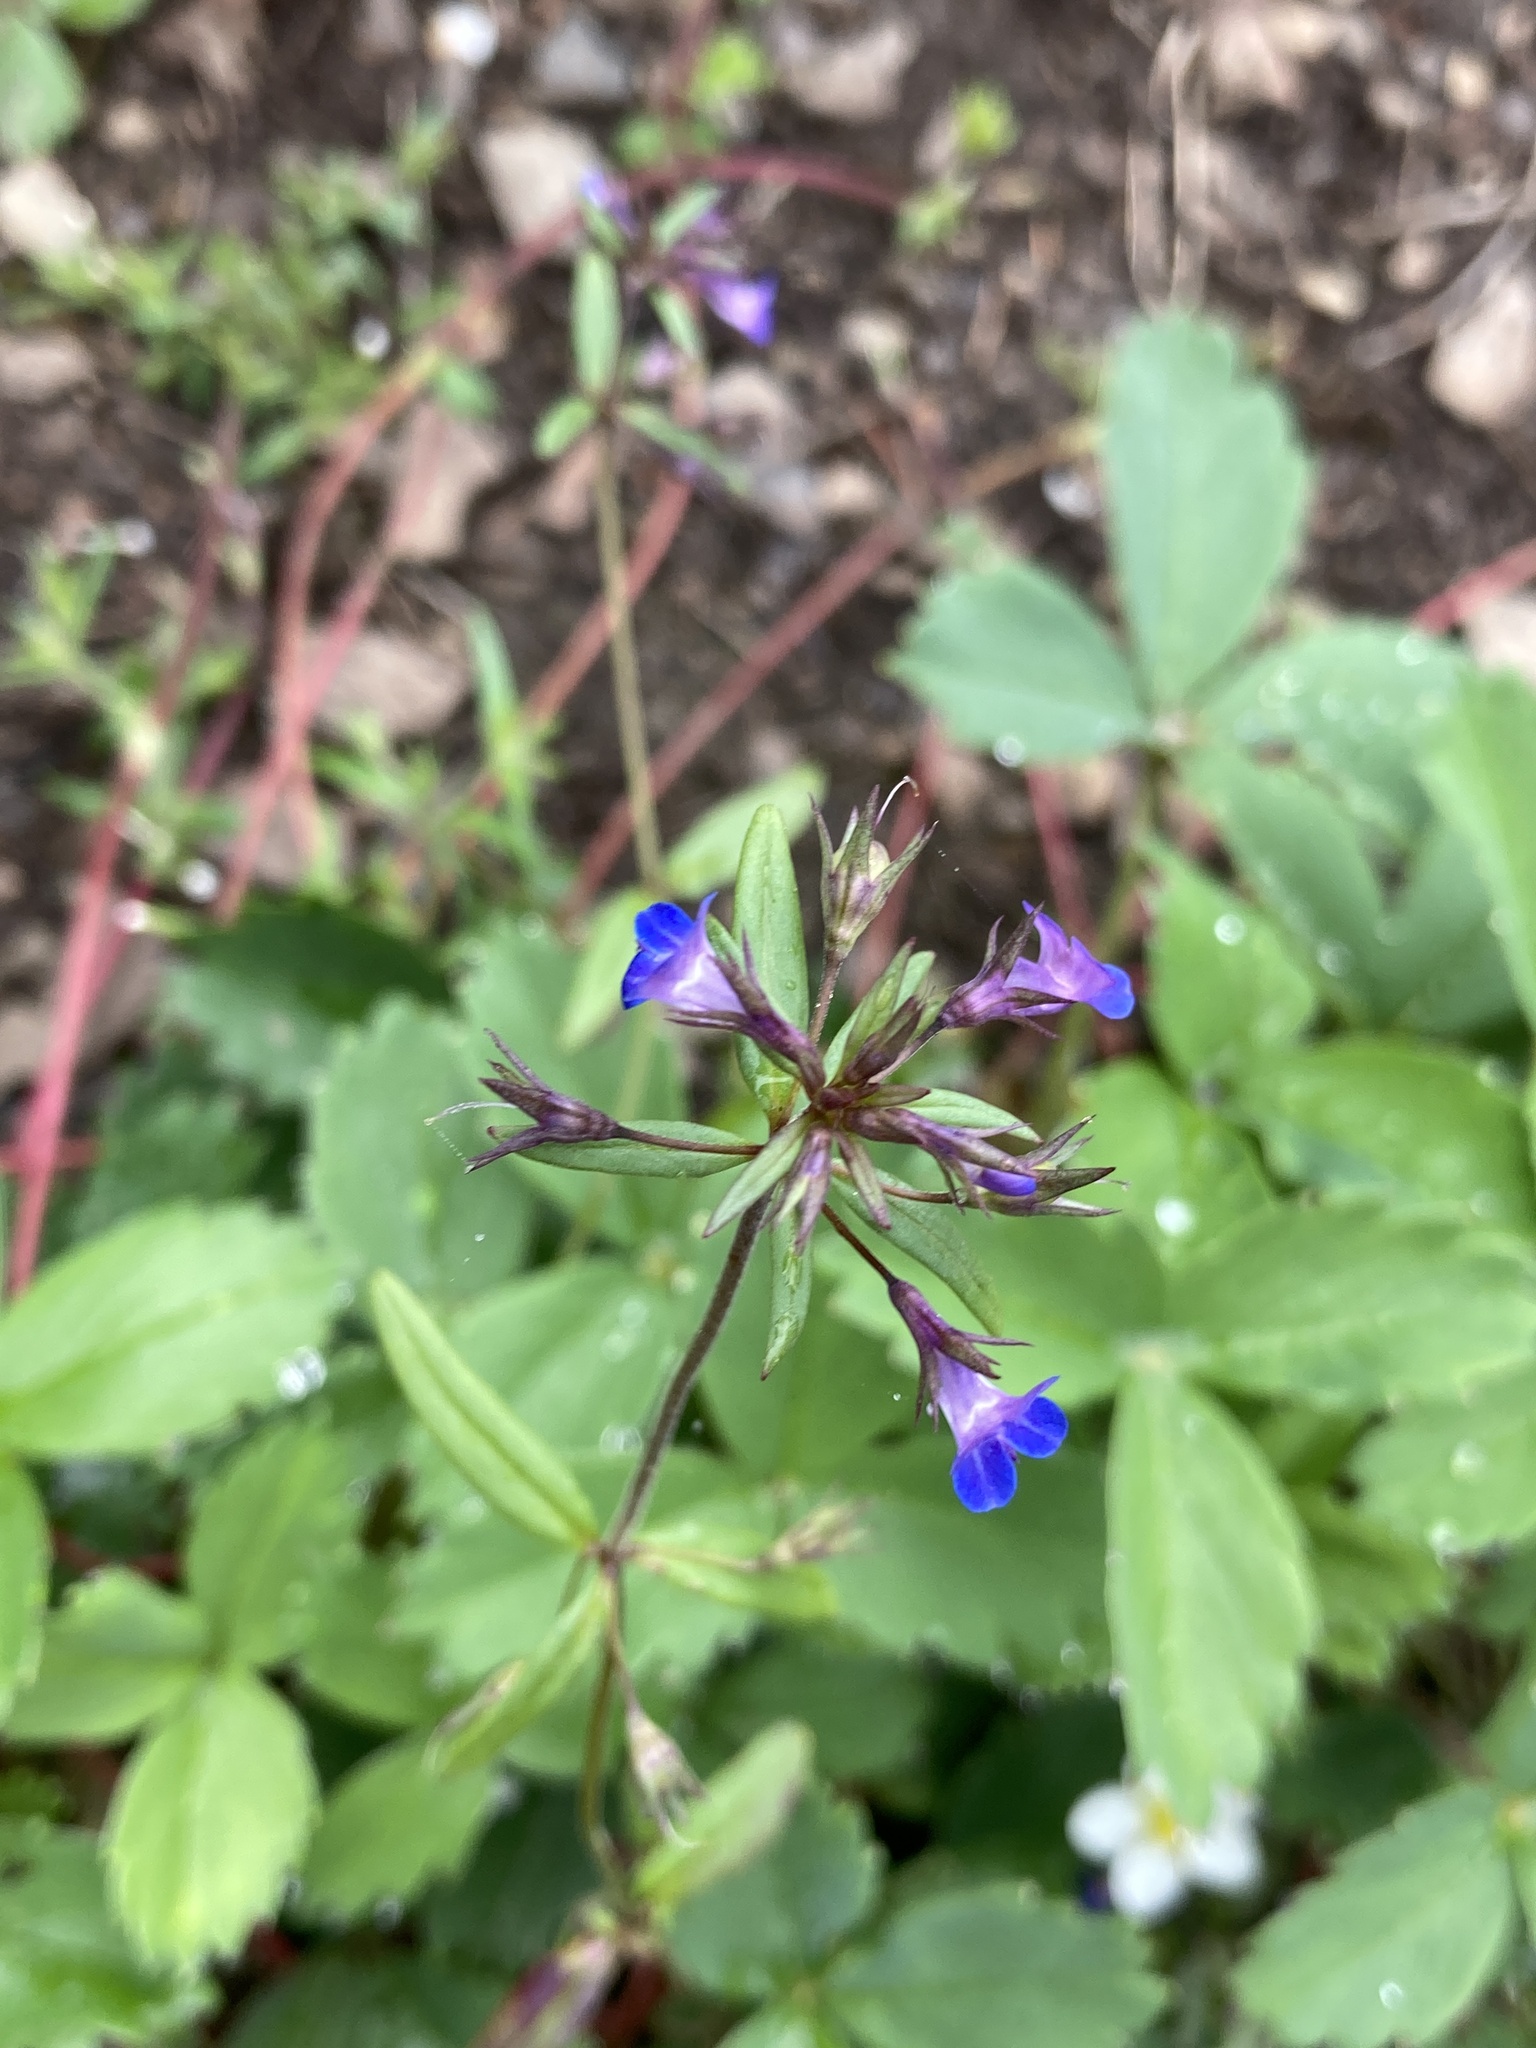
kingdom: Plantae
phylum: Tracheophyta
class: Magnoliopsida
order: Lamiales
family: Plantaginaceae
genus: Collinsia
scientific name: Collinsia parviflora
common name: Blue-lips
